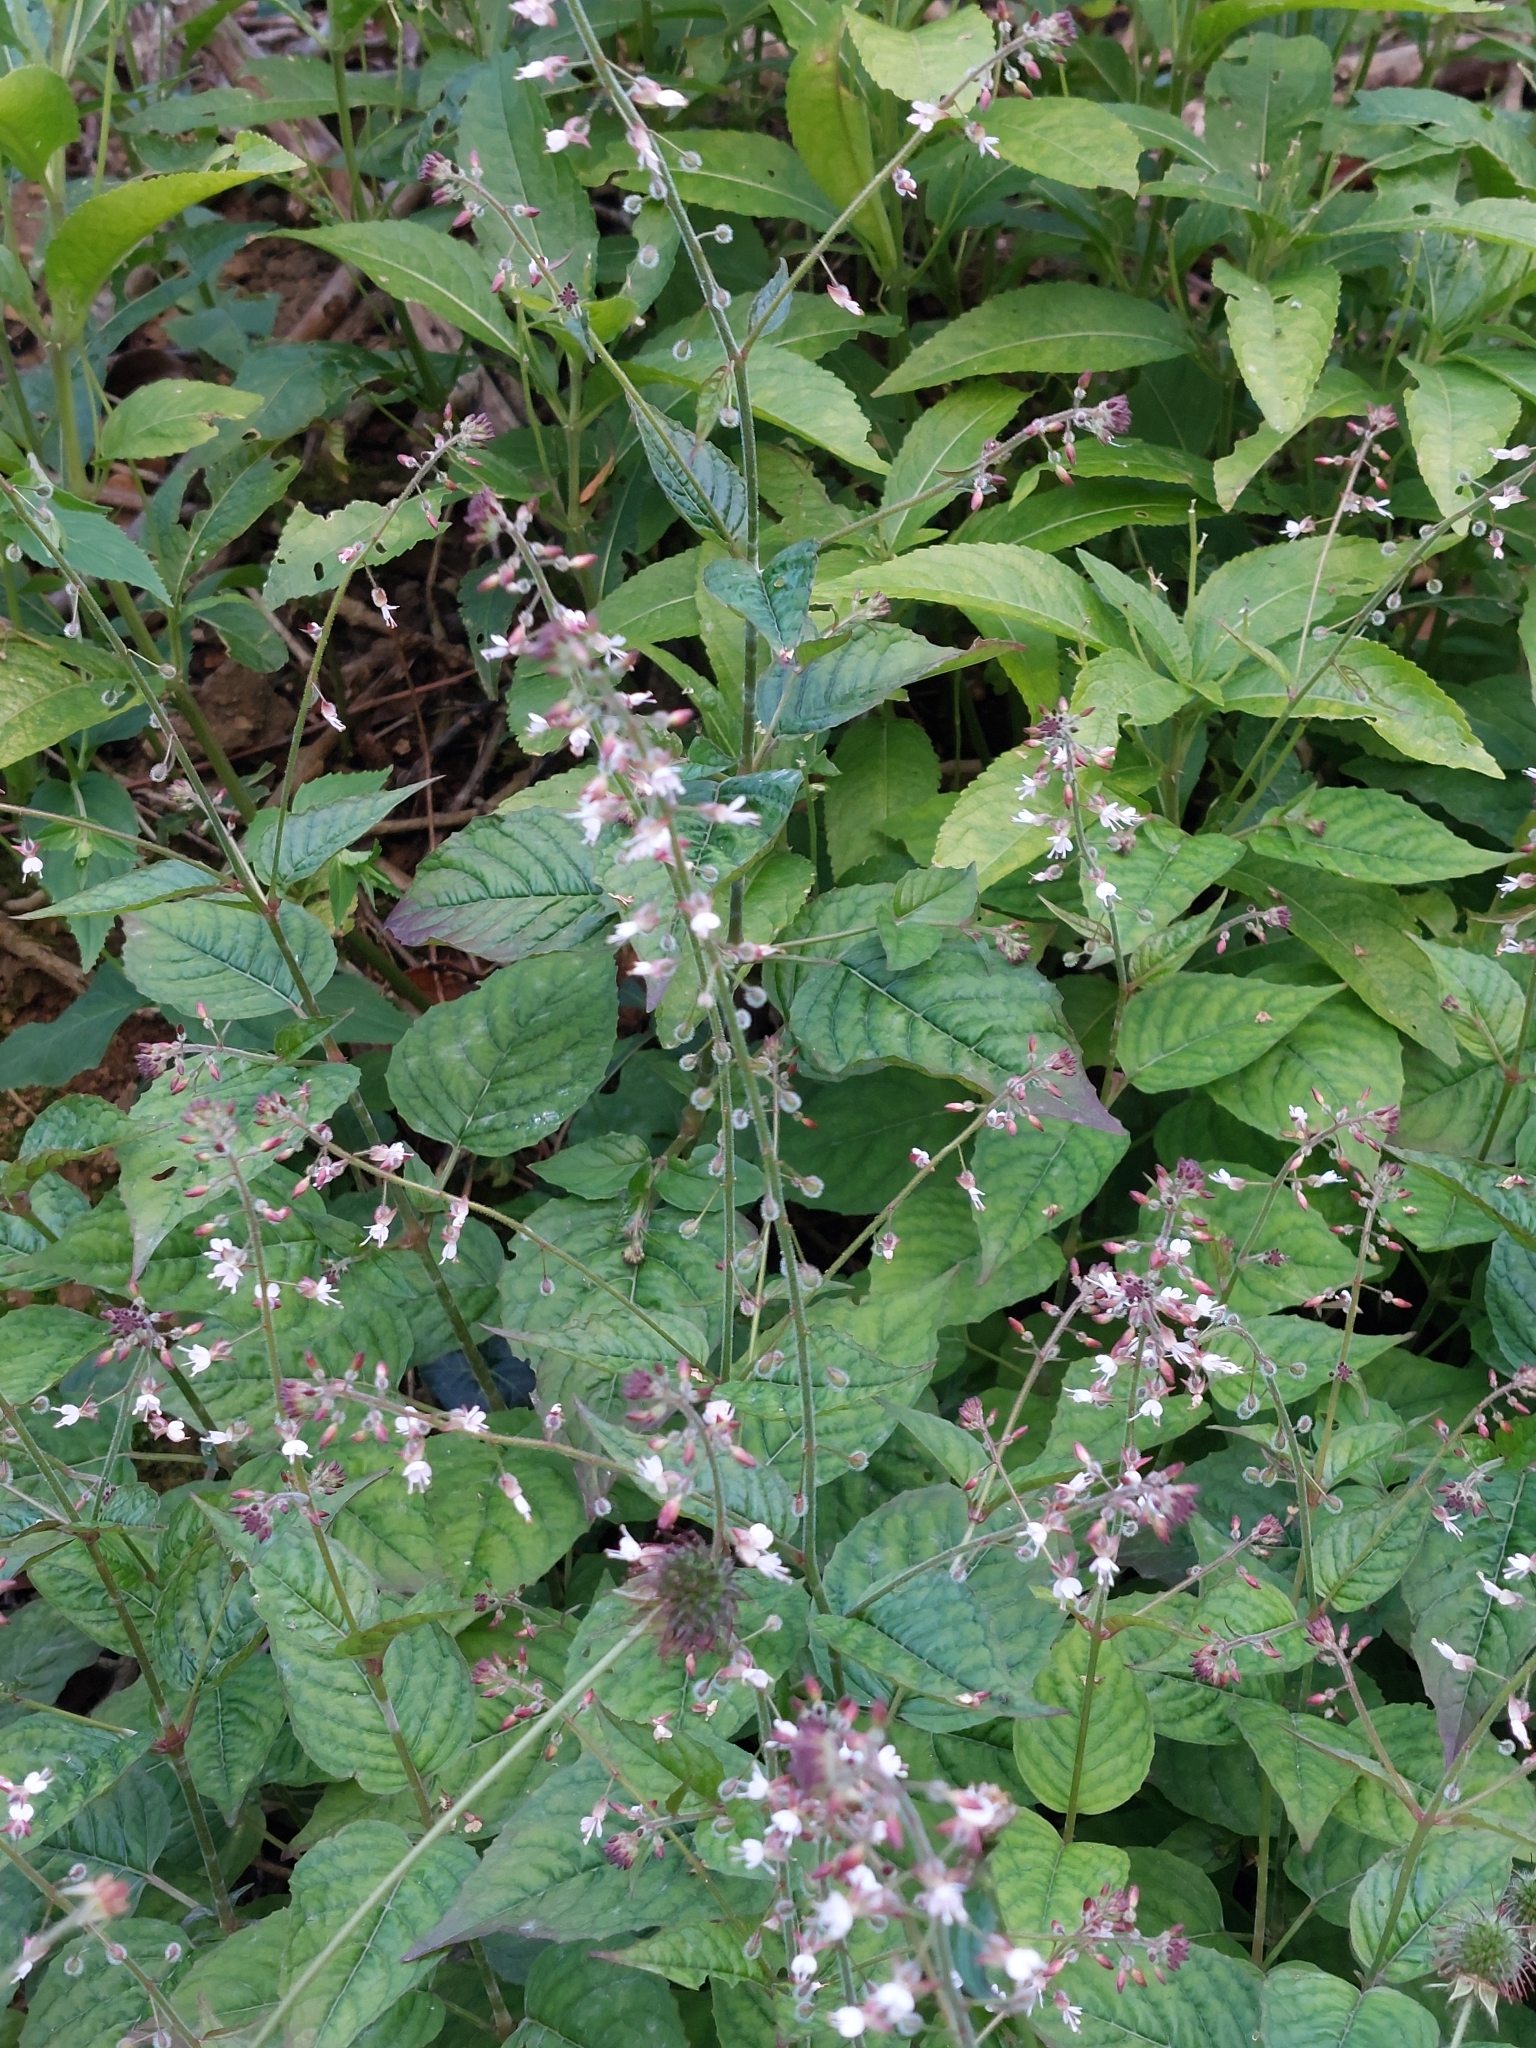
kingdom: Plantae
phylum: Tracheophyta
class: Magnoliopsida
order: Myrtales
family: Onagraceae
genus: Circaea
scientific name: Circaea lutetiana
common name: Enchanter's-nightshade
